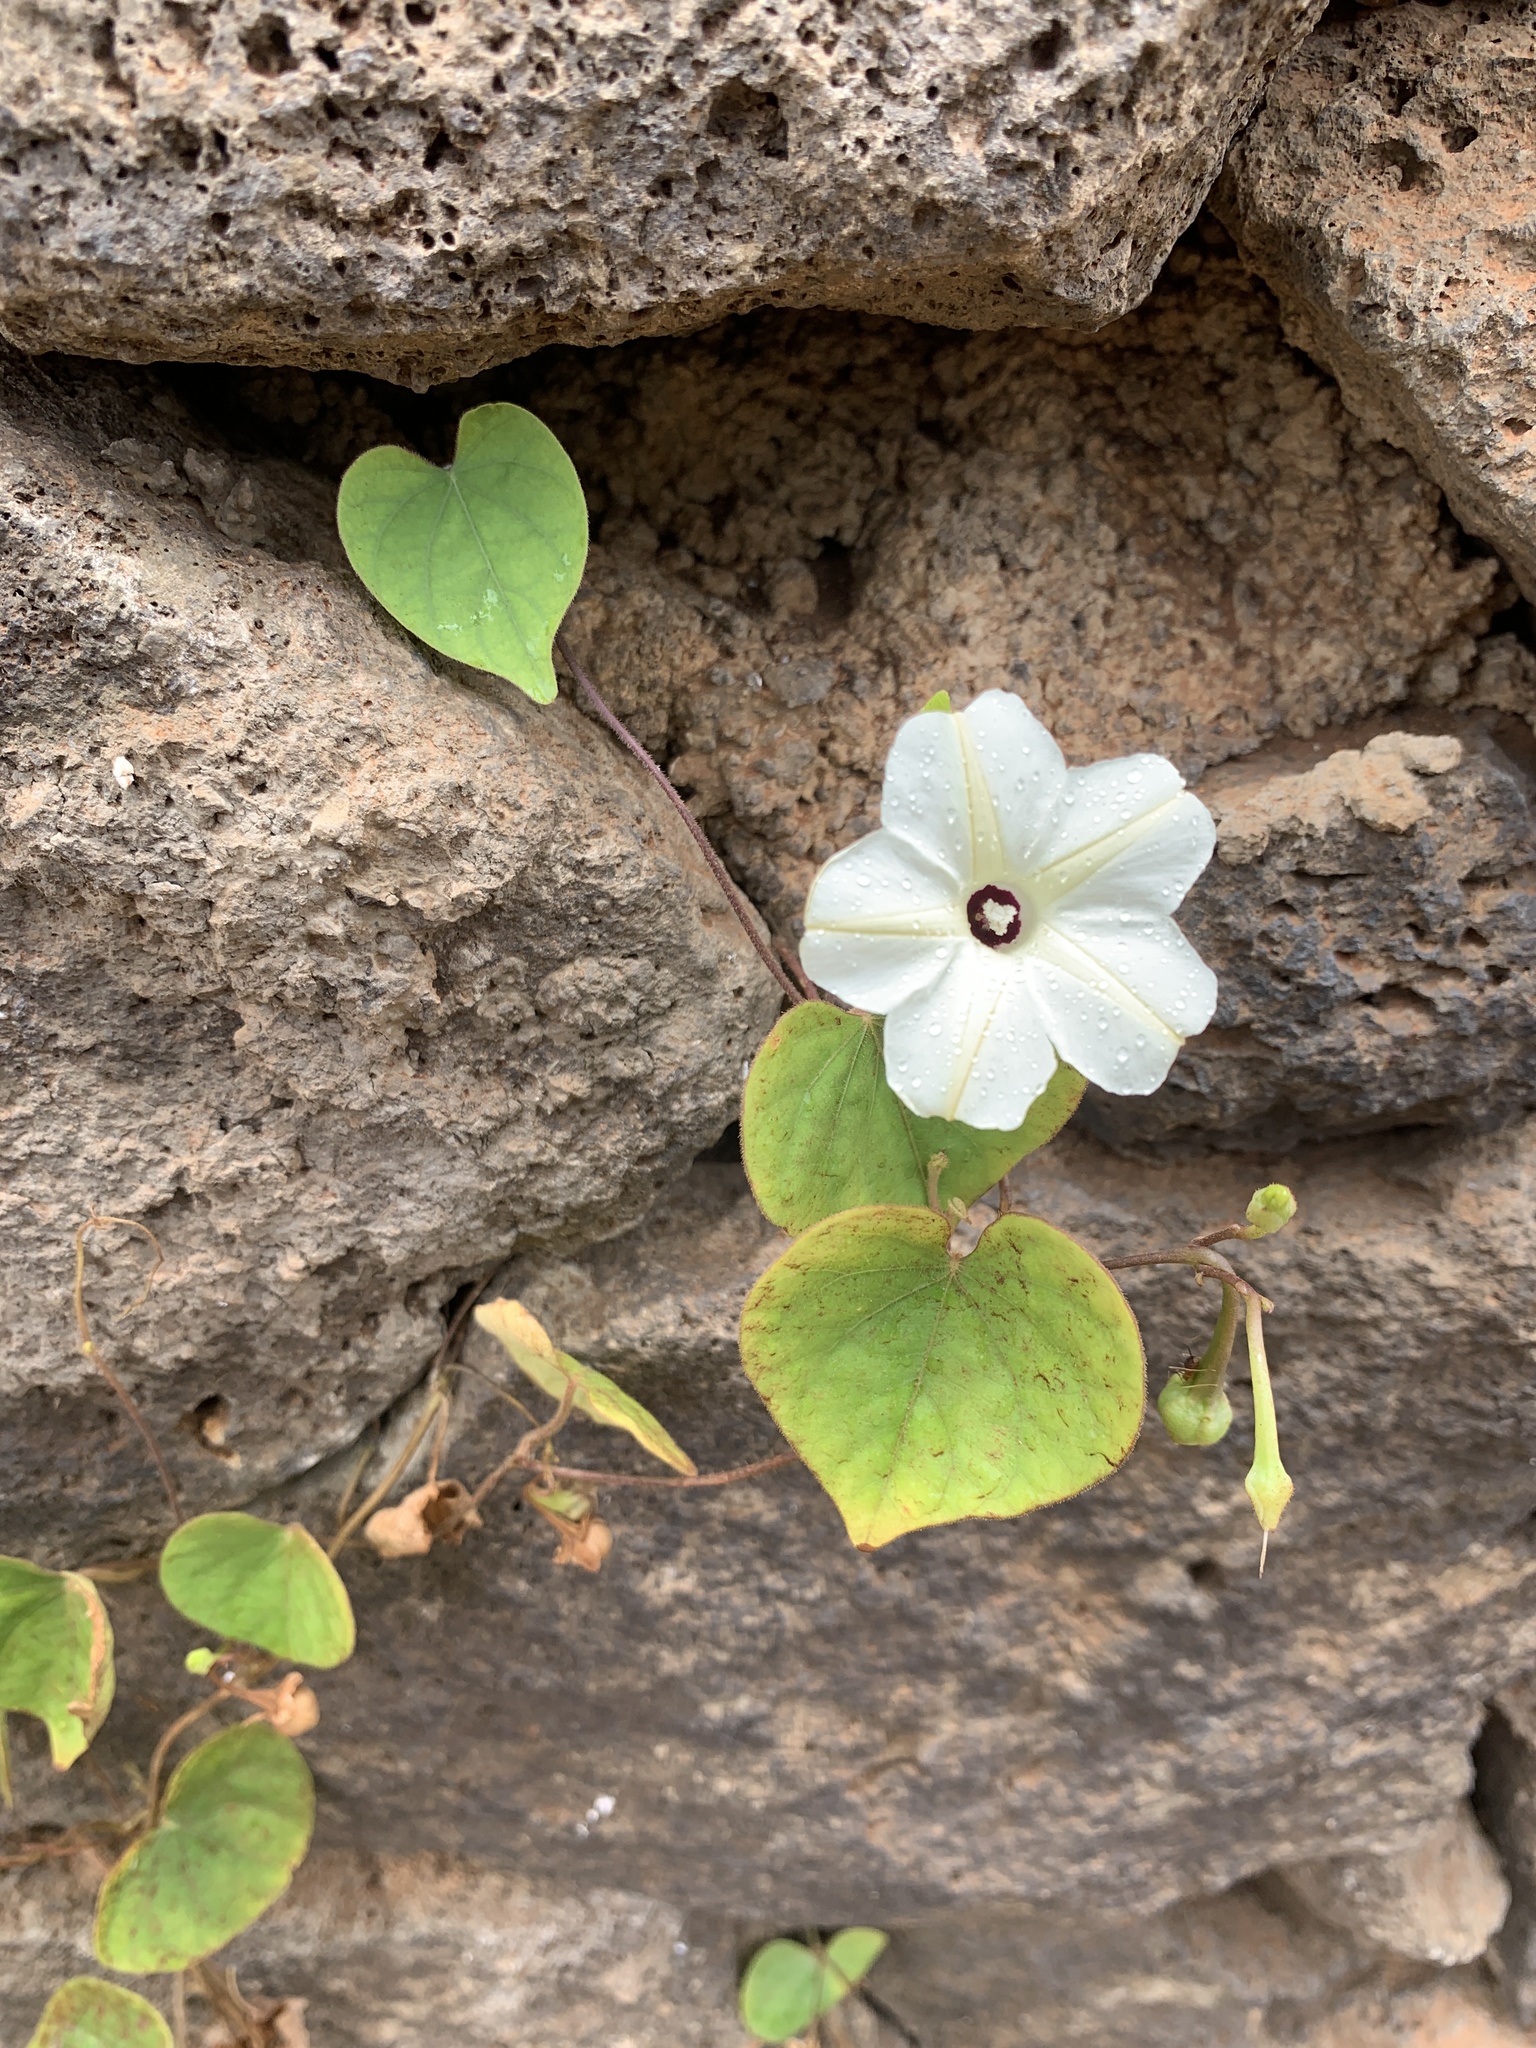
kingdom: Plantae
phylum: Tracheophyta
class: Magnoliopsida
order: Solanales
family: Convolvulaceae
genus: Ipomoea
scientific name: Ipomoea obscura
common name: Obscure morning-glory
